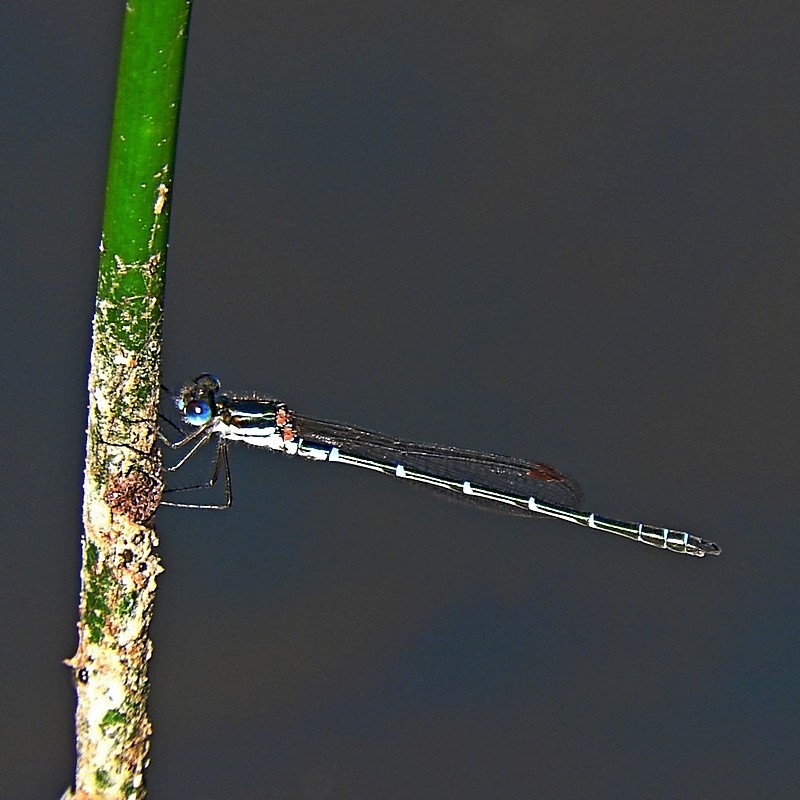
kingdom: Animalia
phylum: Arthropoda
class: Insecta
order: Odonata
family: Lestidae
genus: Austrolestes
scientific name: Austrolestes psyche
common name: Cup ringtail
